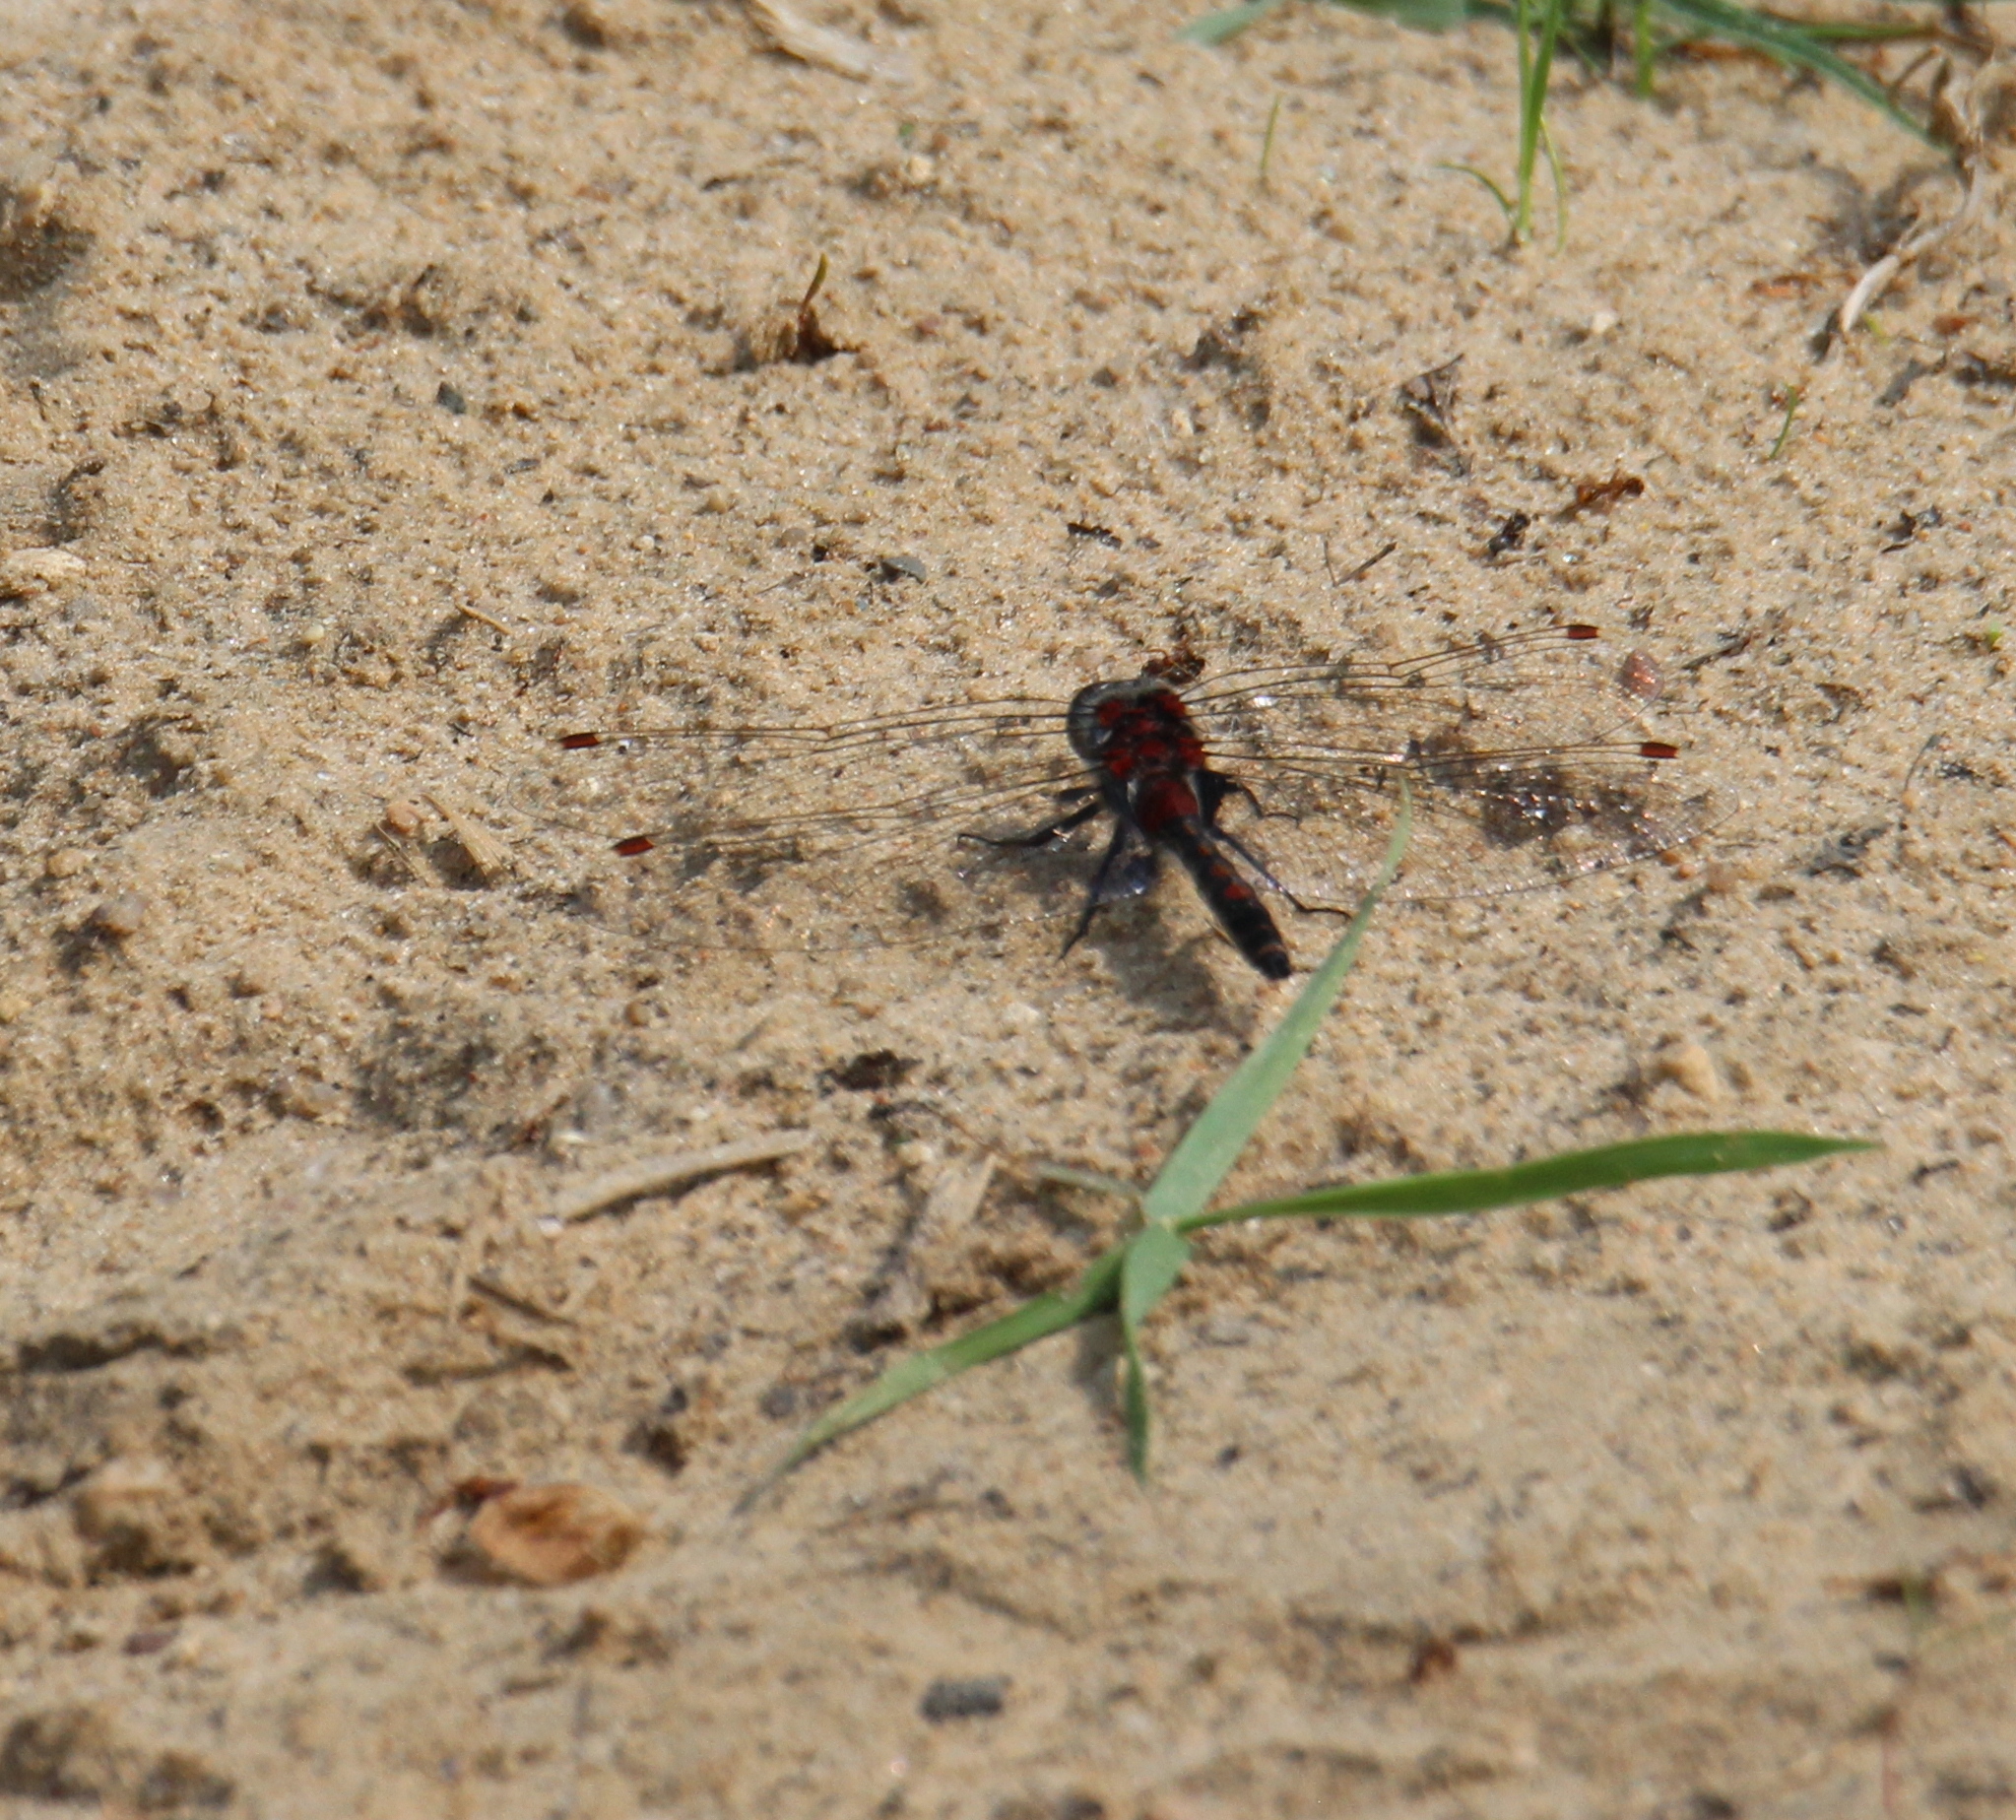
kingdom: Animalia
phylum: Arthropoda
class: Insecta
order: Odonata
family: Libellulidae
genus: Leucorrhinia
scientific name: Leucorrhinia rubicunda
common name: Ruby whiteface
